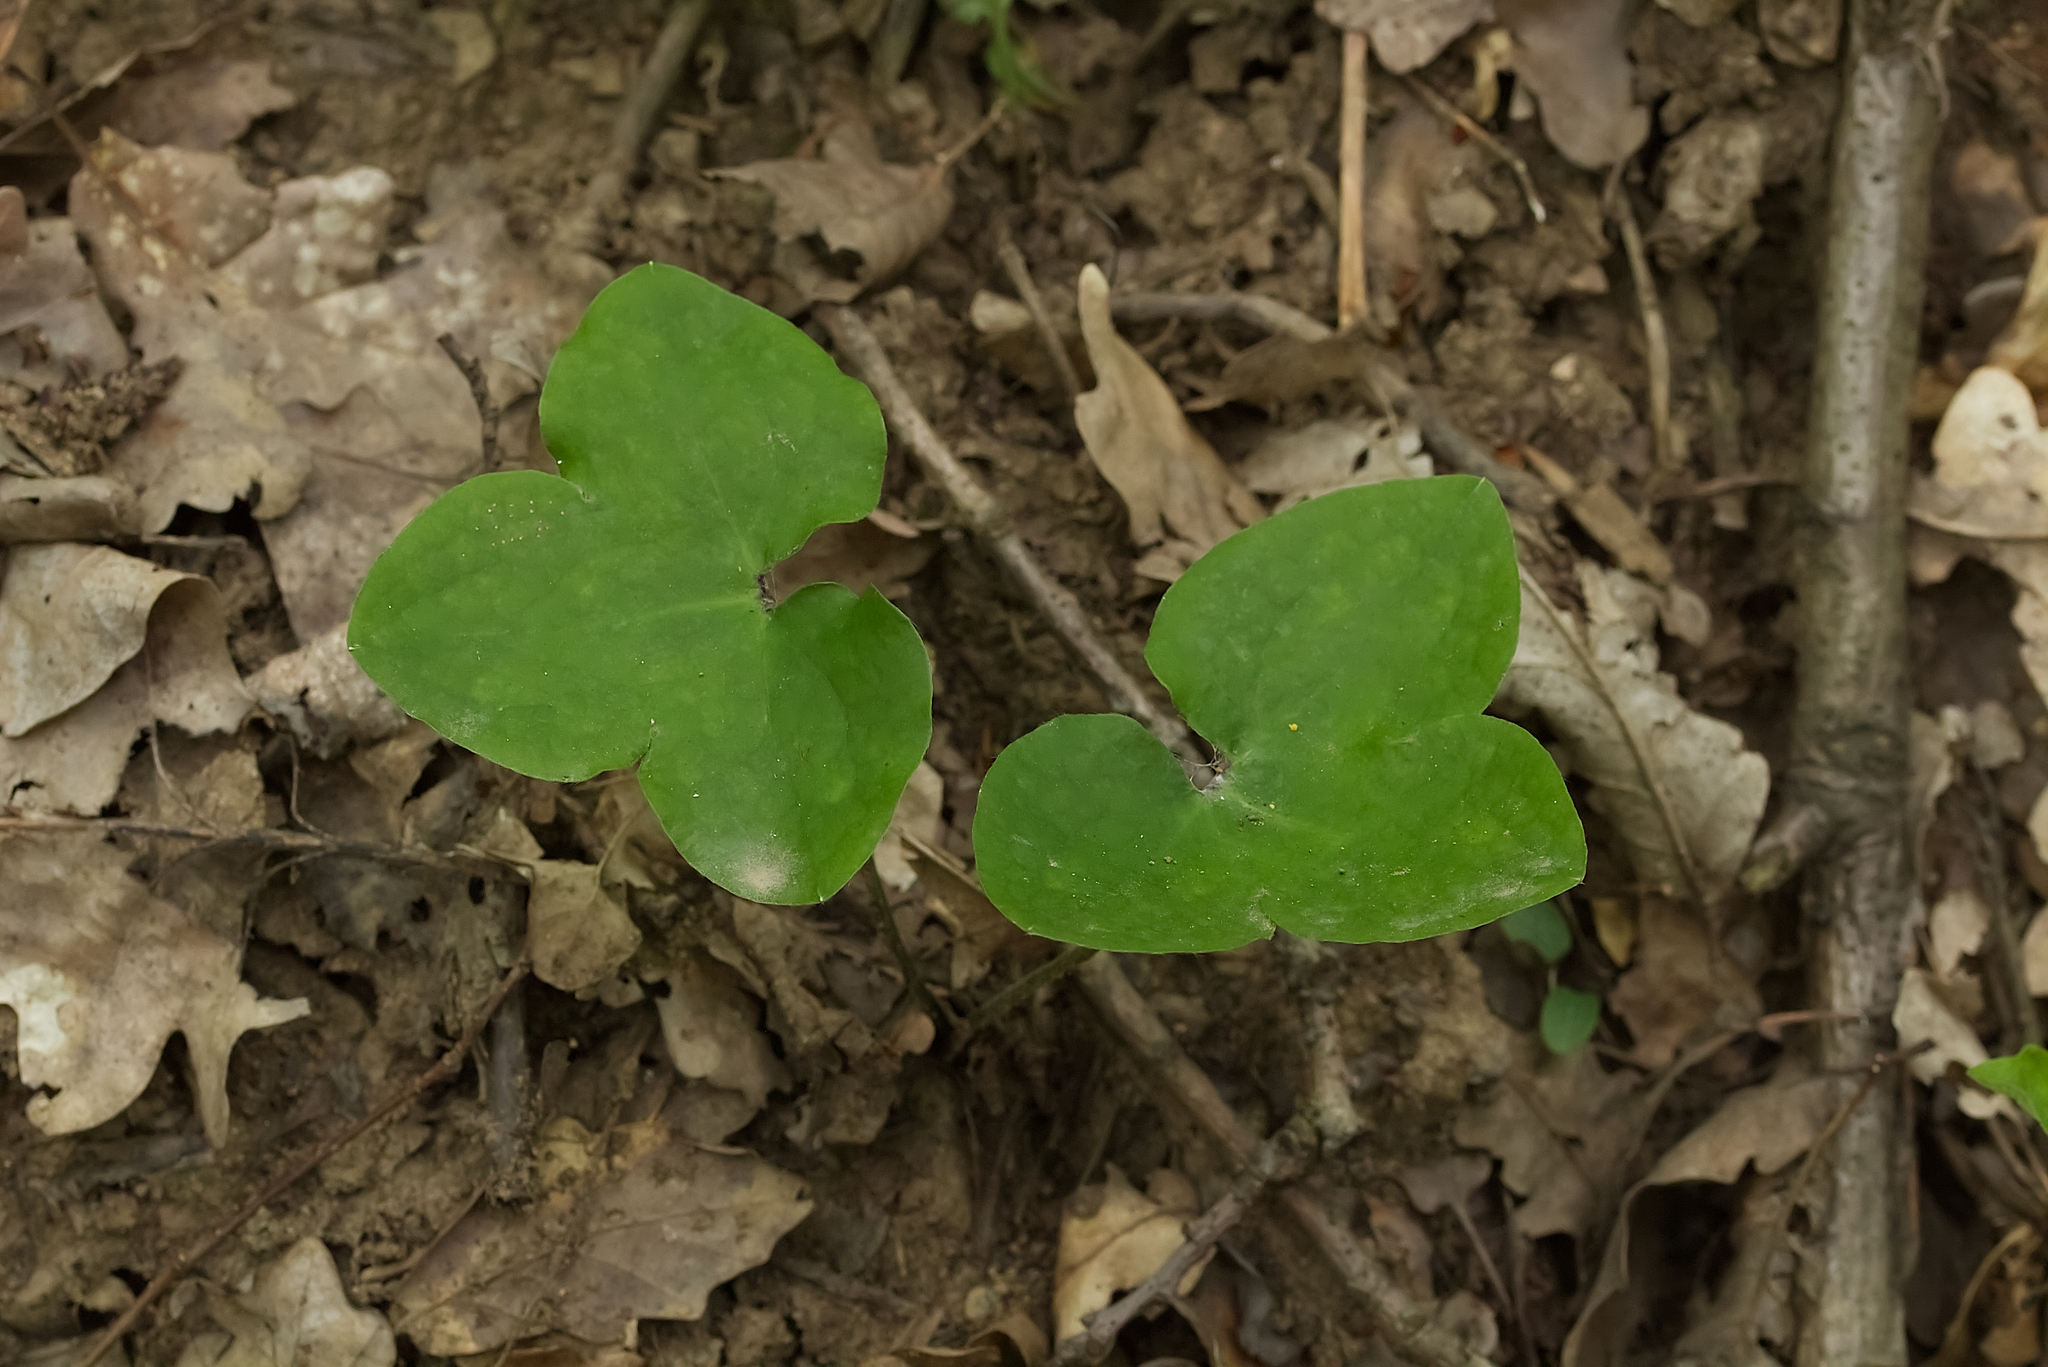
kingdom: Plantae
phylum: Tracheophyta
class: Magnoliopsida
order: Ranunculales
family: Ranunculaceae
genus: Hepatica
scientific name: Hepatica nobilis
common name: Liverleaf
